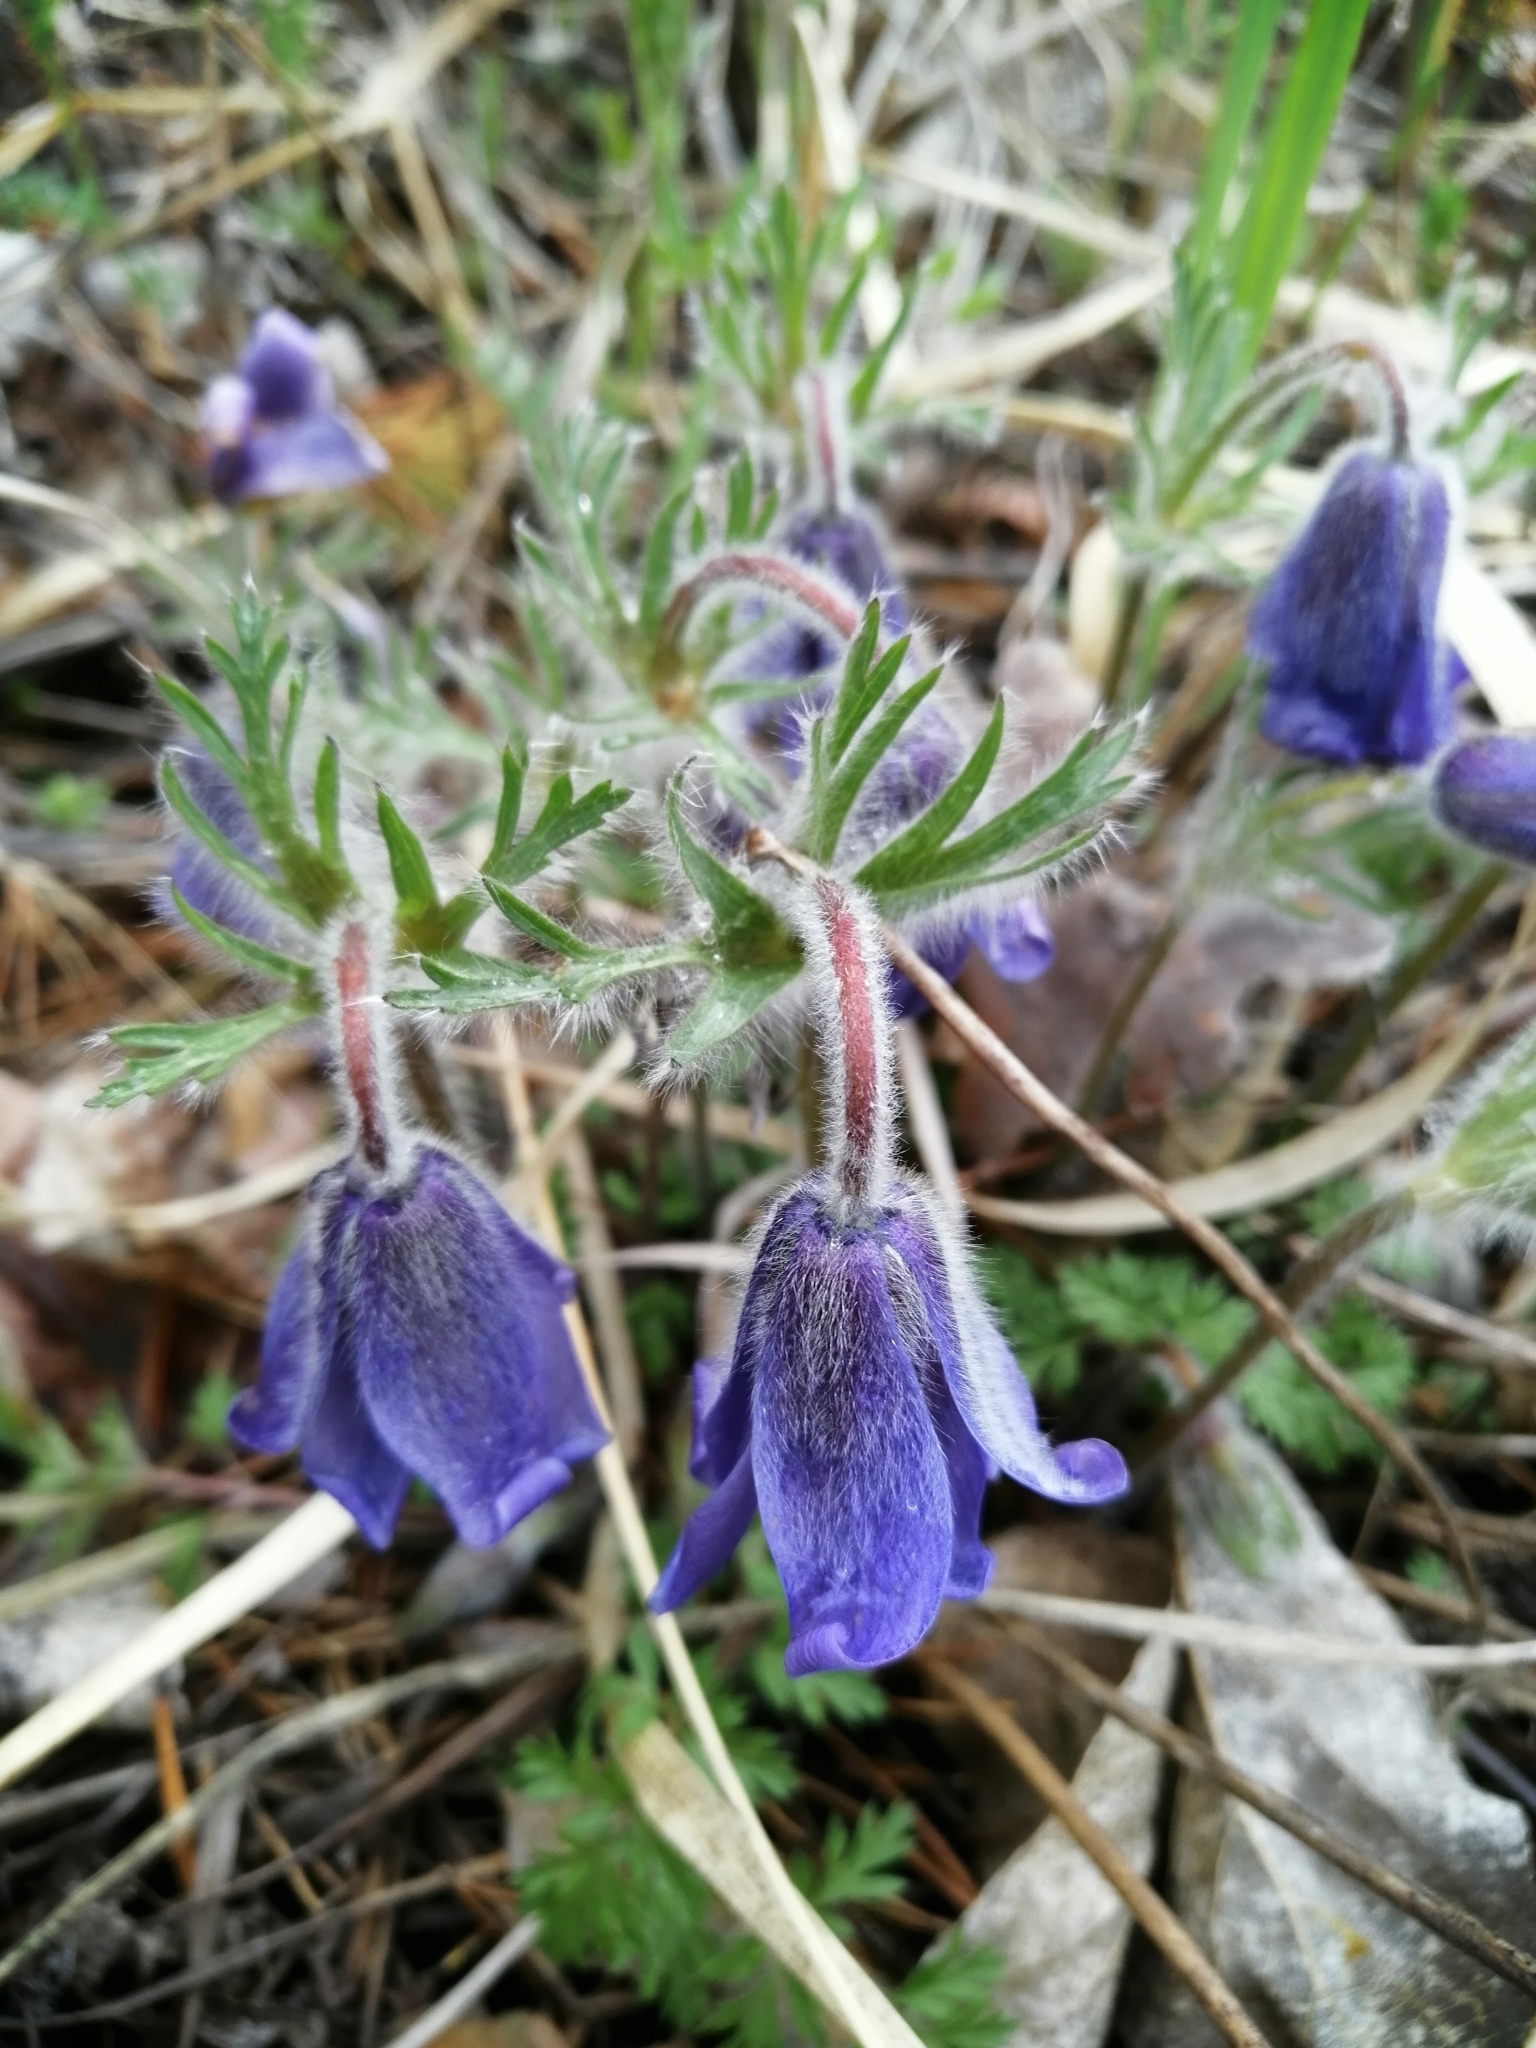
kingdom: Plantae
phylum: Tracheophyta
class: Magnoliopsida
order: Ranunculales
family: Ranunculaceae
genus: Pulsatilla
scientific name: Pulsatilla ambigua
